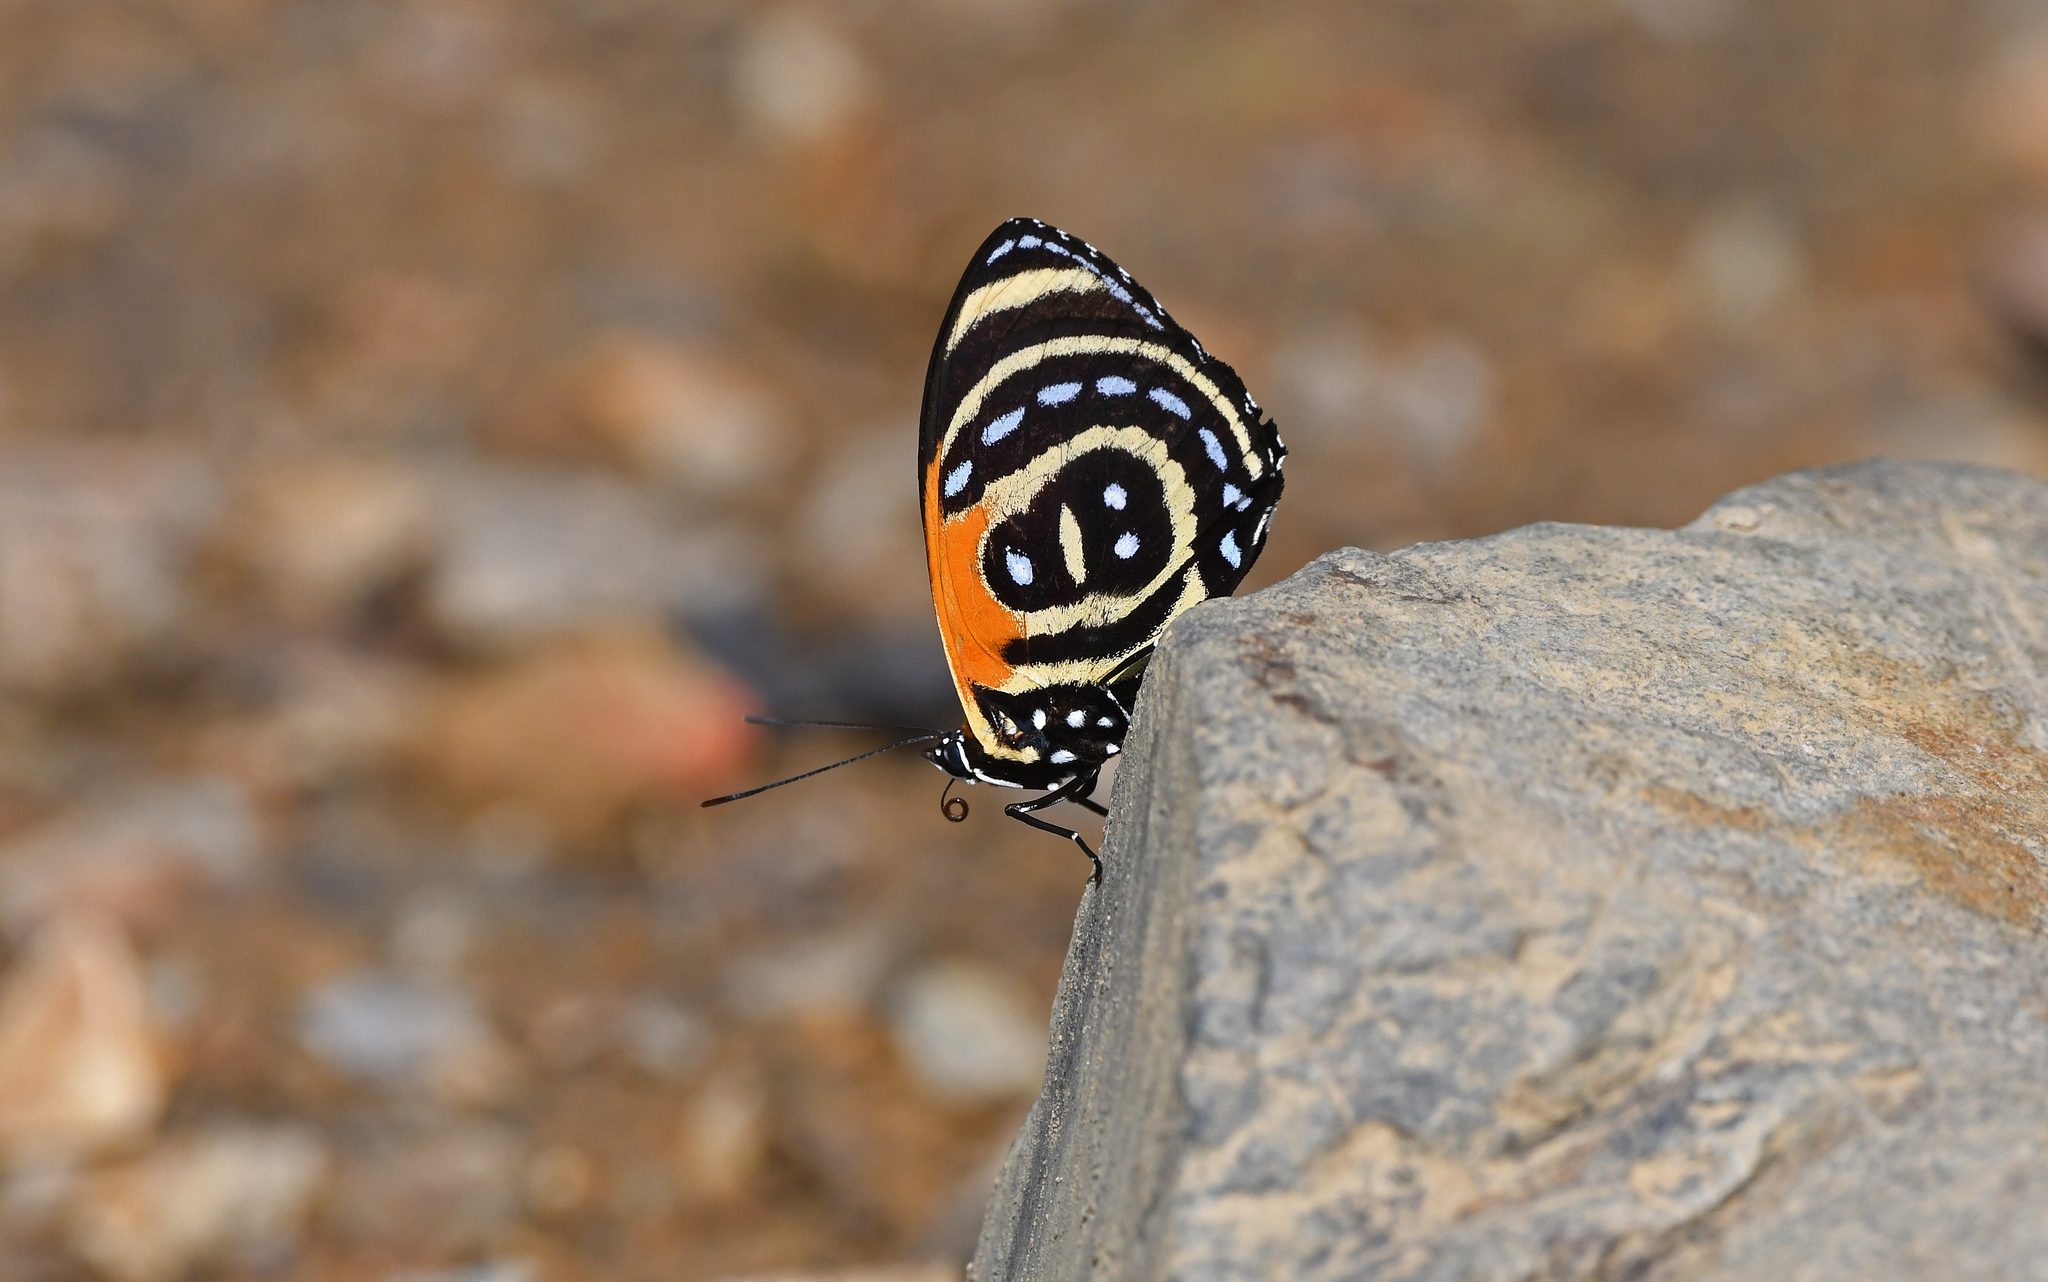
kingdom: Animalia
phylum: Arthropoda
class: Insecta
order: Lepidoptera
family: Nymphalidae
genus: Catagramma
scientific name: Catagramma cynosura
